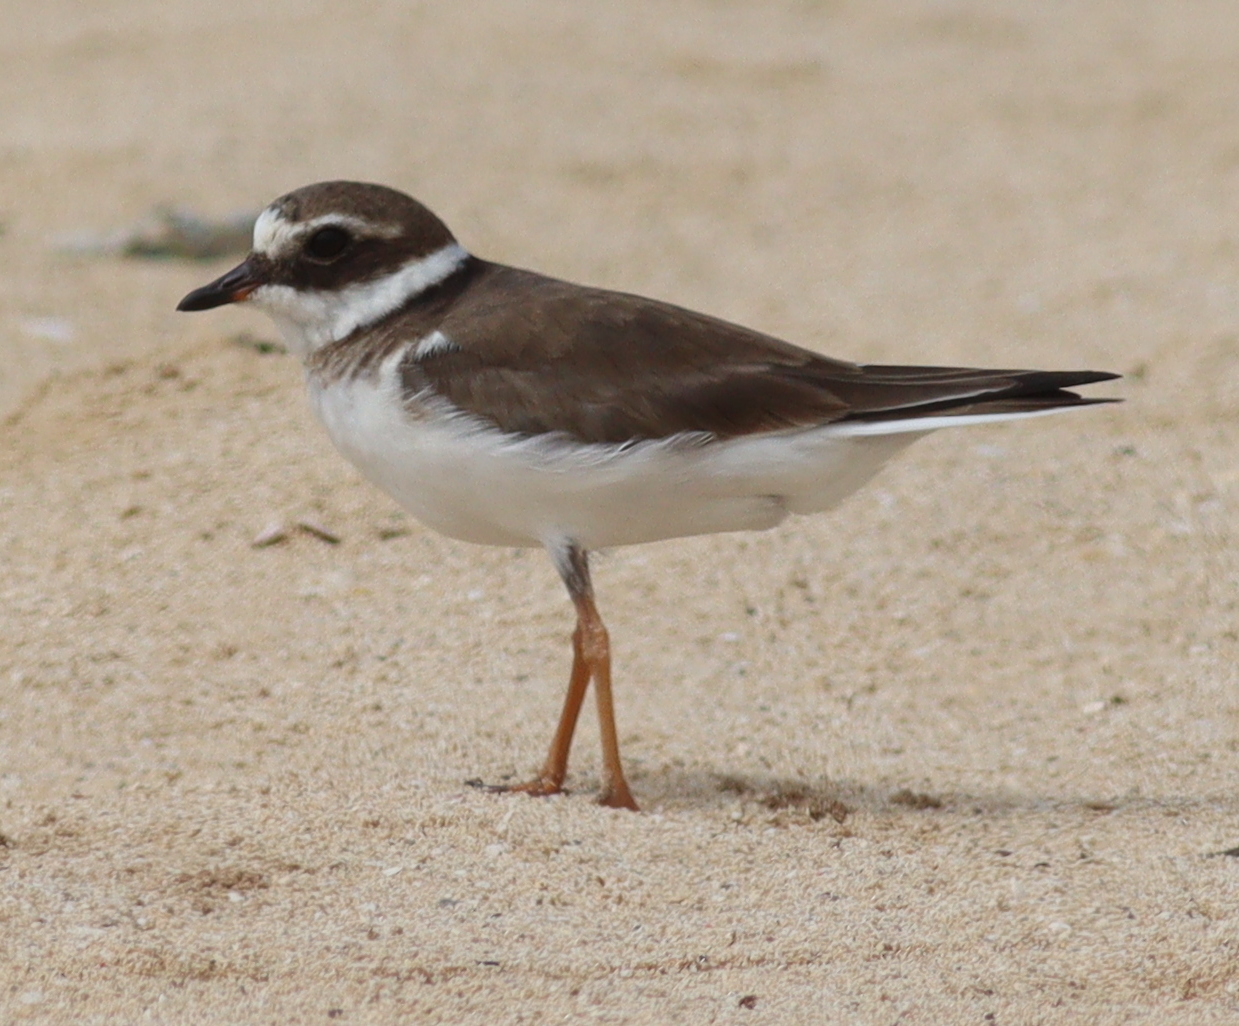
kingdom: Animalia
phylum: Chordata
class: Aves
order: Charadriiformes
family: Charadriidae
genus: Charadrius
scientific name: Charadrius hiaticula
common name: Common ringed plover
